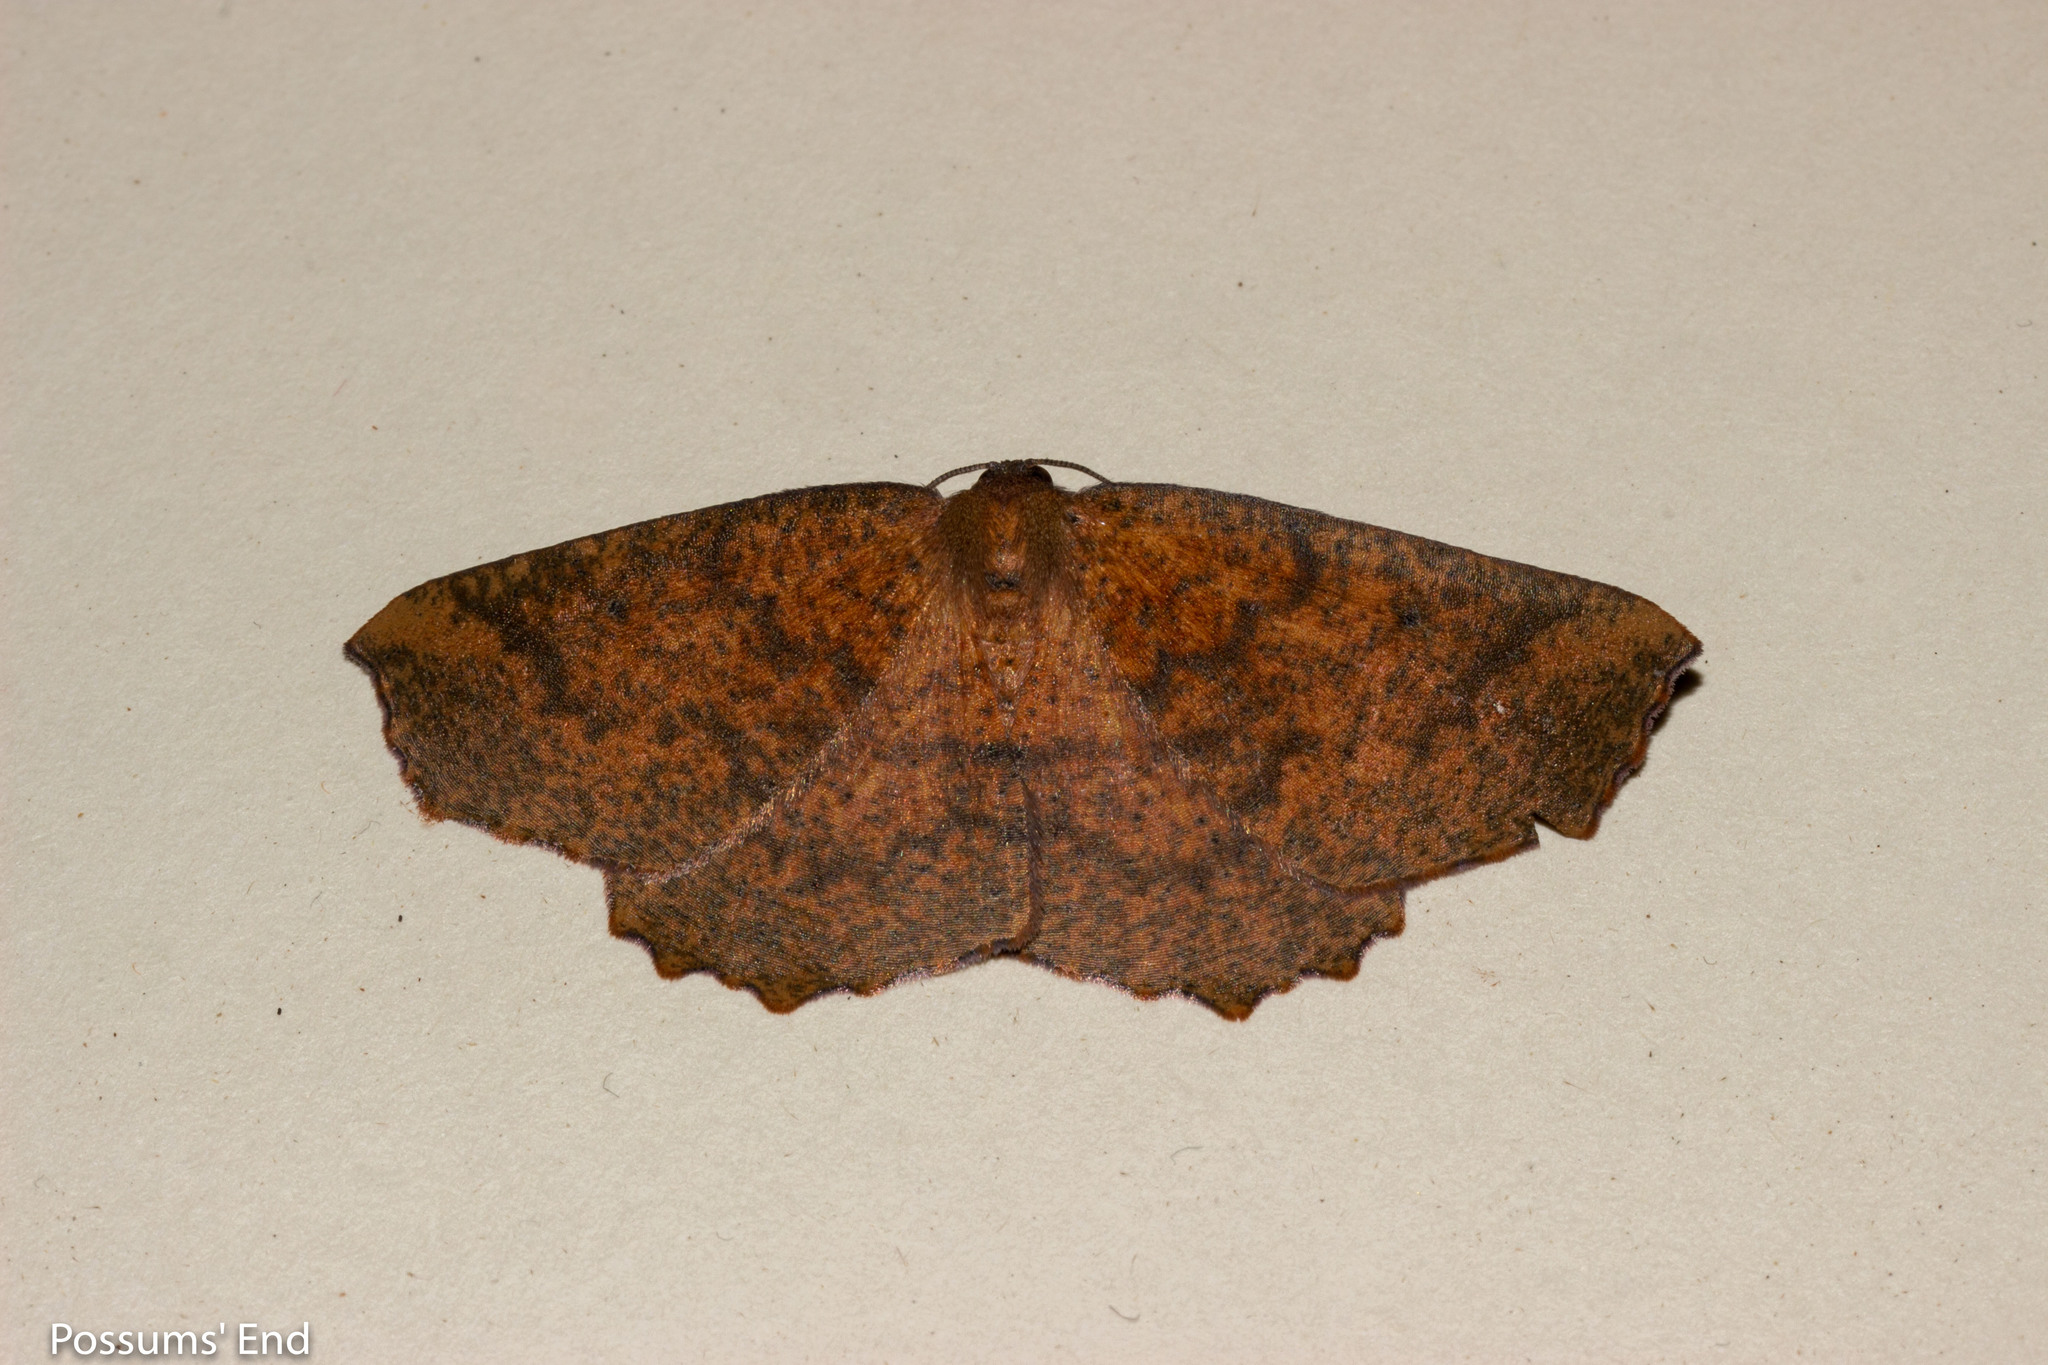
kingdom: Animalia
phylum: Arthropoda
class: Insecta
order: Lepidoptera
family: Geometridae
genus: Xyridacma
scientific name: Xyridacma ustaria
